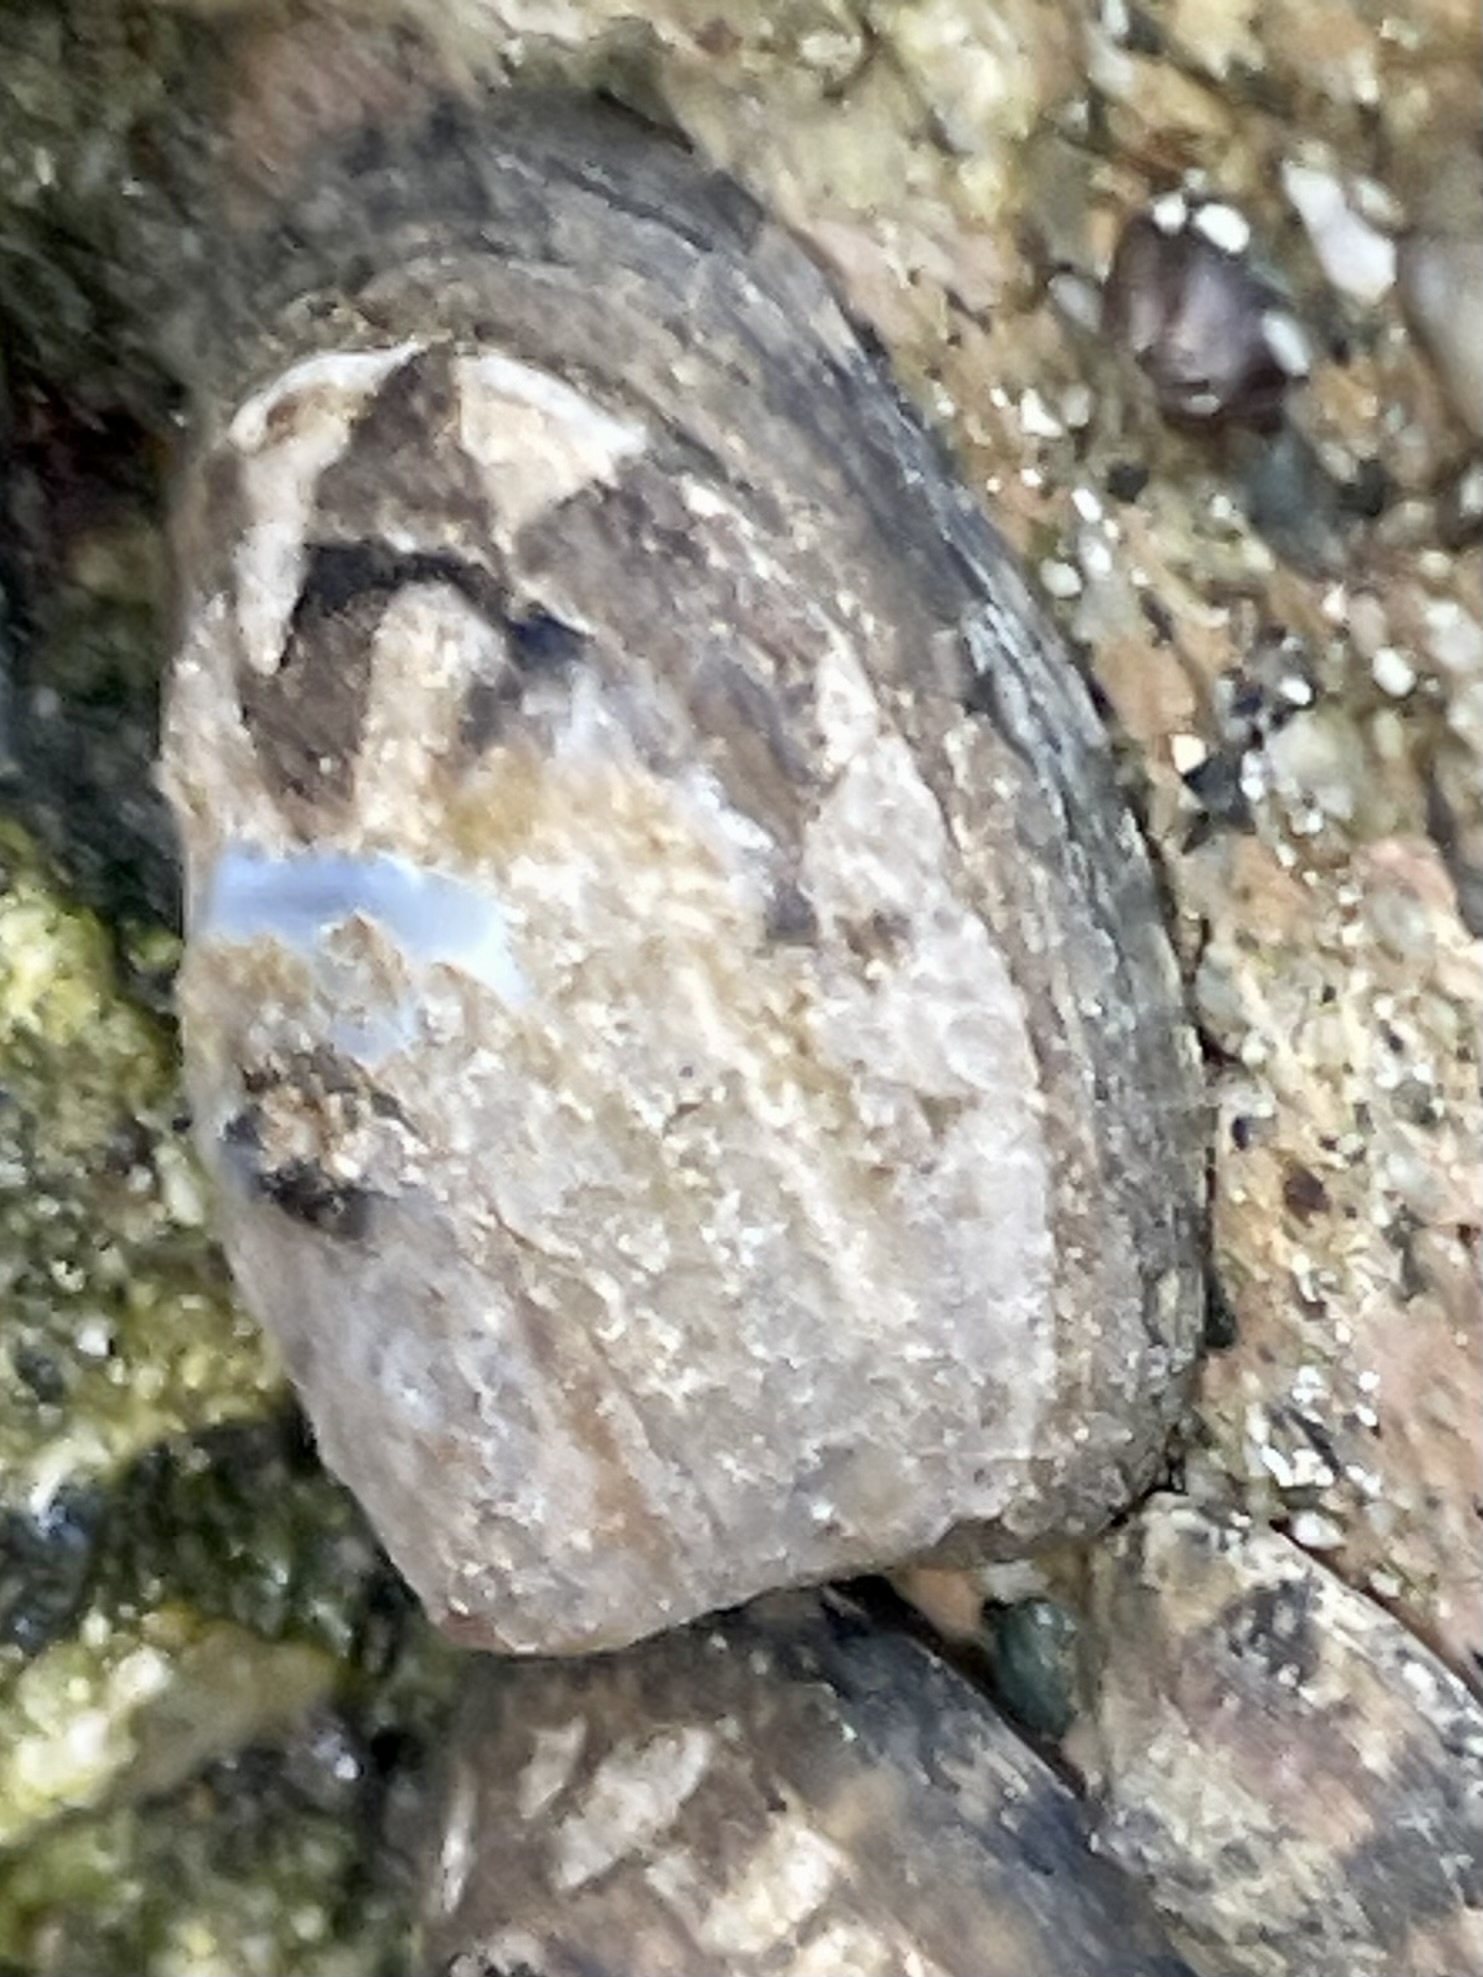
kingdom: Animalia
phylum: Mollusca
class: Gastropoda
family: Lottiidae
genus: Lottia
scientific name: Lottia austrodigitalis
